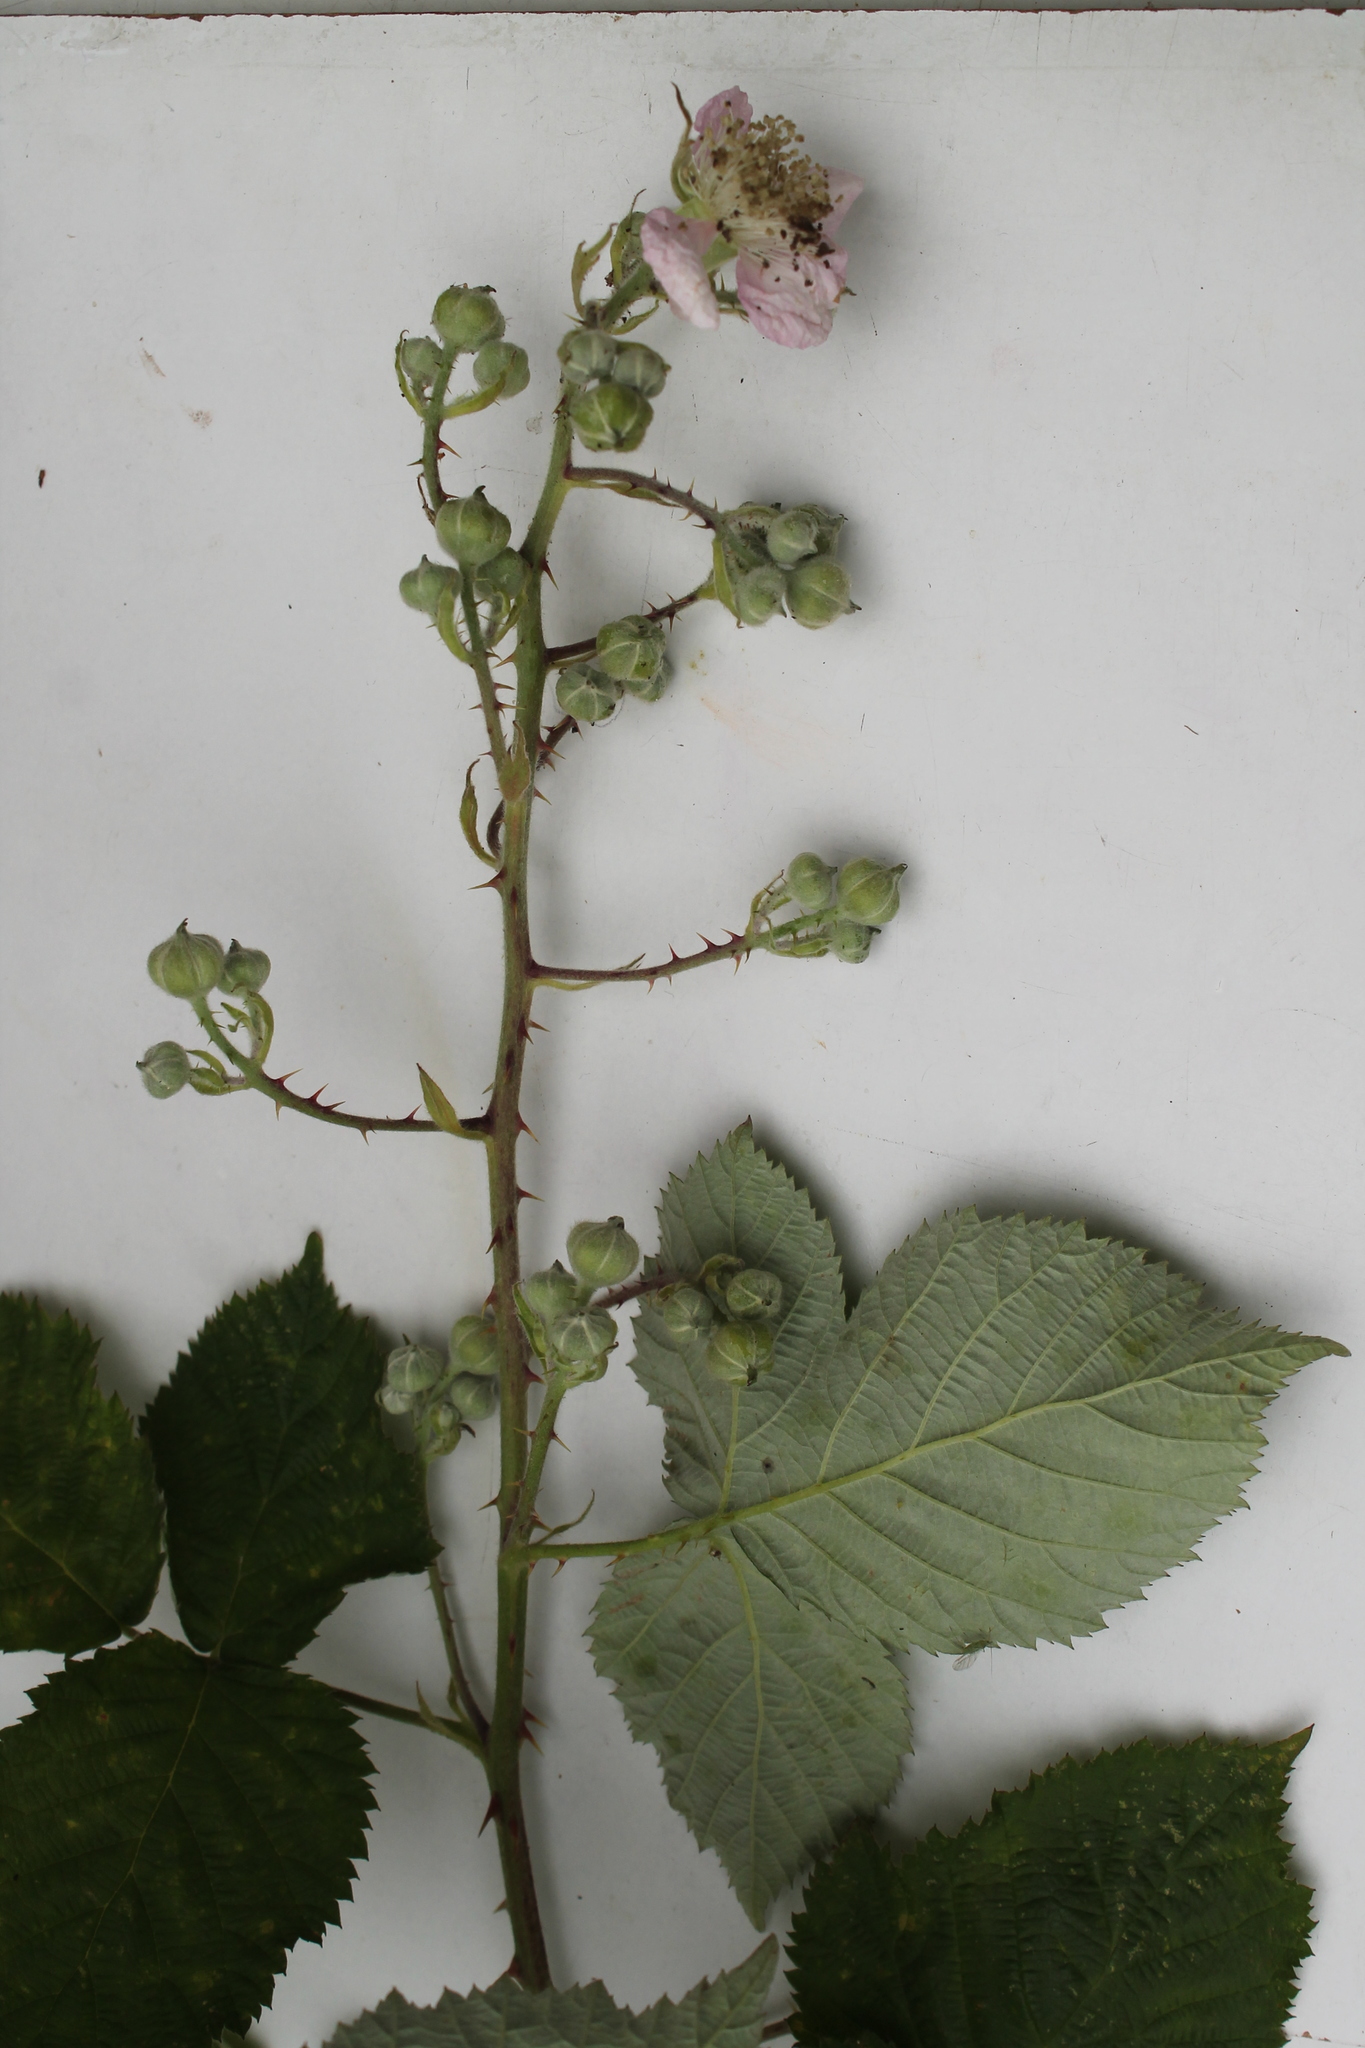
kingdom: Plantae
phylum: Tracheophyta
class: Magnoliopsida
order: Rosales
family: Rosaceae
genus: Rubus
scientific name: Rubus armeniacus
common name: Himalayan blackberry
